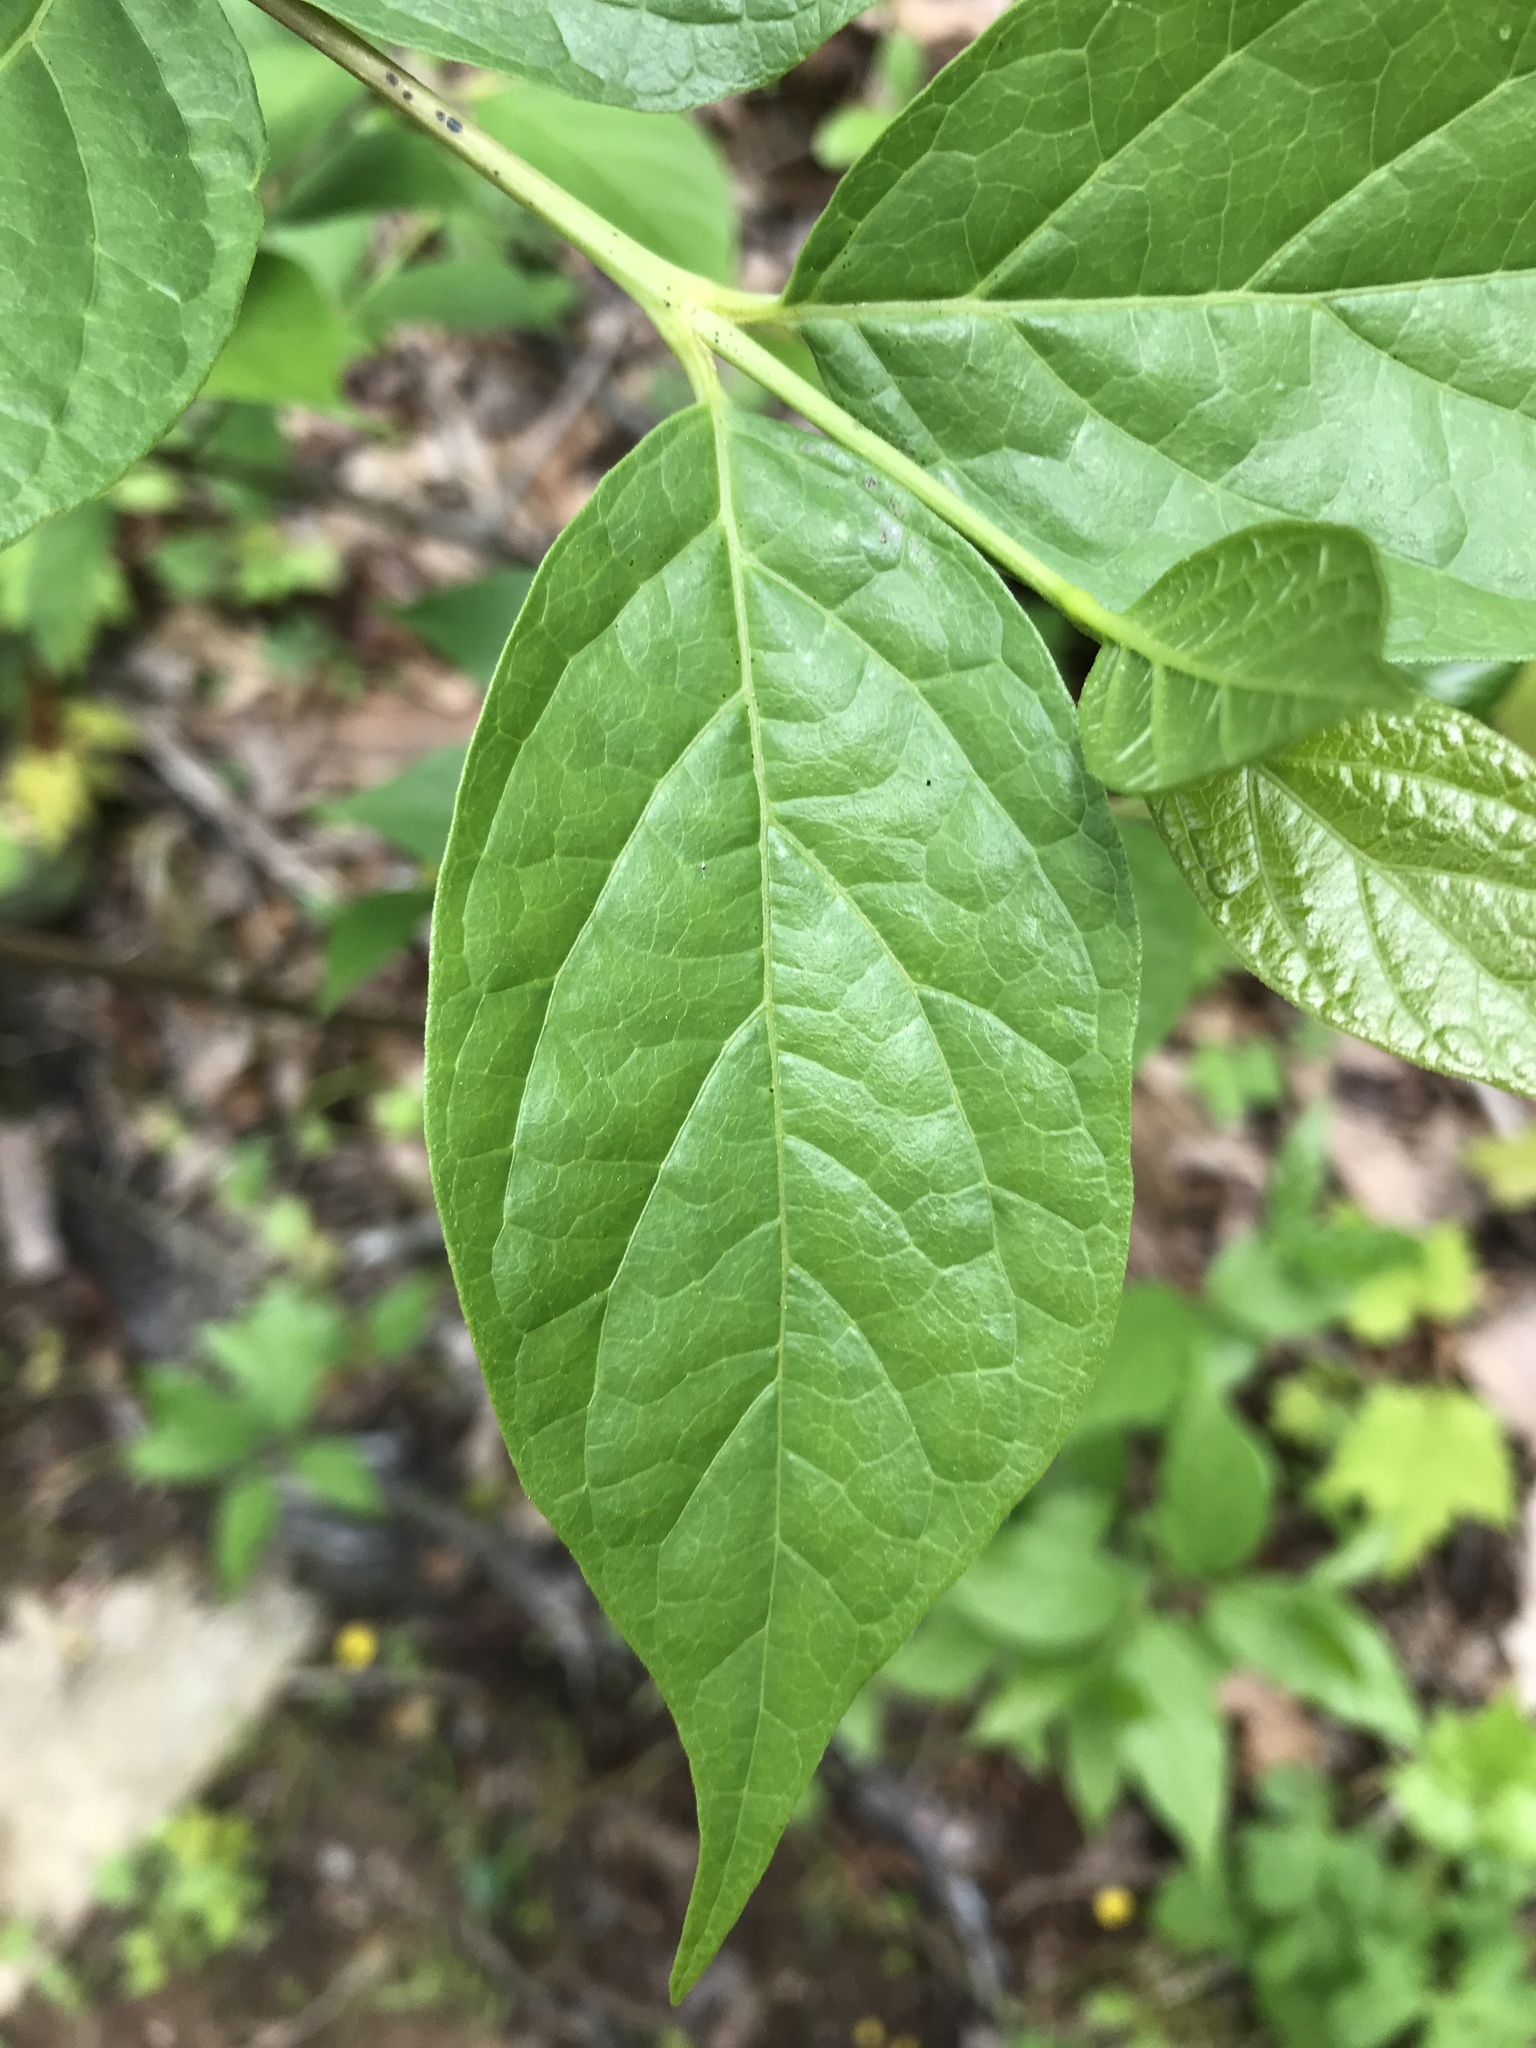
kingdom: Plantae
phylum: Tracheophyta
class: Magnoliopsida
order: Laurales
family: Calycanthaceae
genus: Calycanthus
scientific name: Calycanthus floridus
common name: Carolina-allspice
